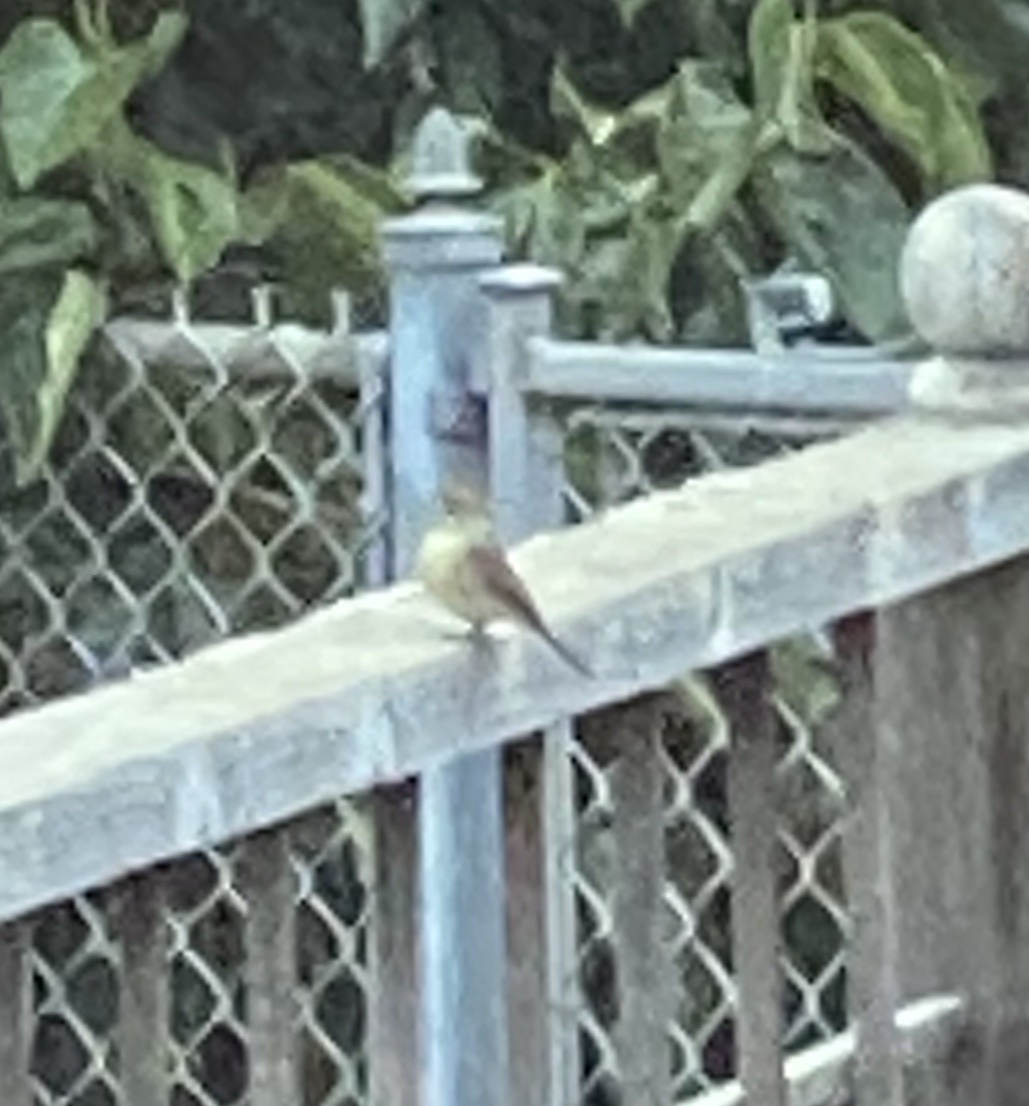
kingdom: Animalia
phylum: Chordata
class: Aves
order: Passeriformes
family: Tyrannidae
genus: Empidonax
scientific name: Empidonax difficilis
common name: Pacific-slope flycatcher
